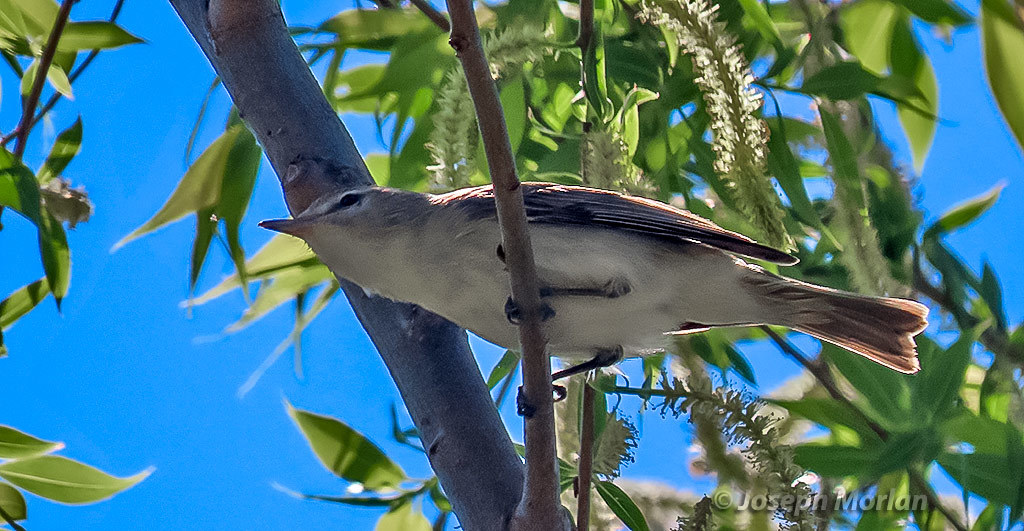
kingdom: Animalia
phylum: Chordata
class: Aves
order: Passeriformes
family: Vireonidae
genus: Vireo
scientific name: Vireo gilvus
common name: Warbling vireo
